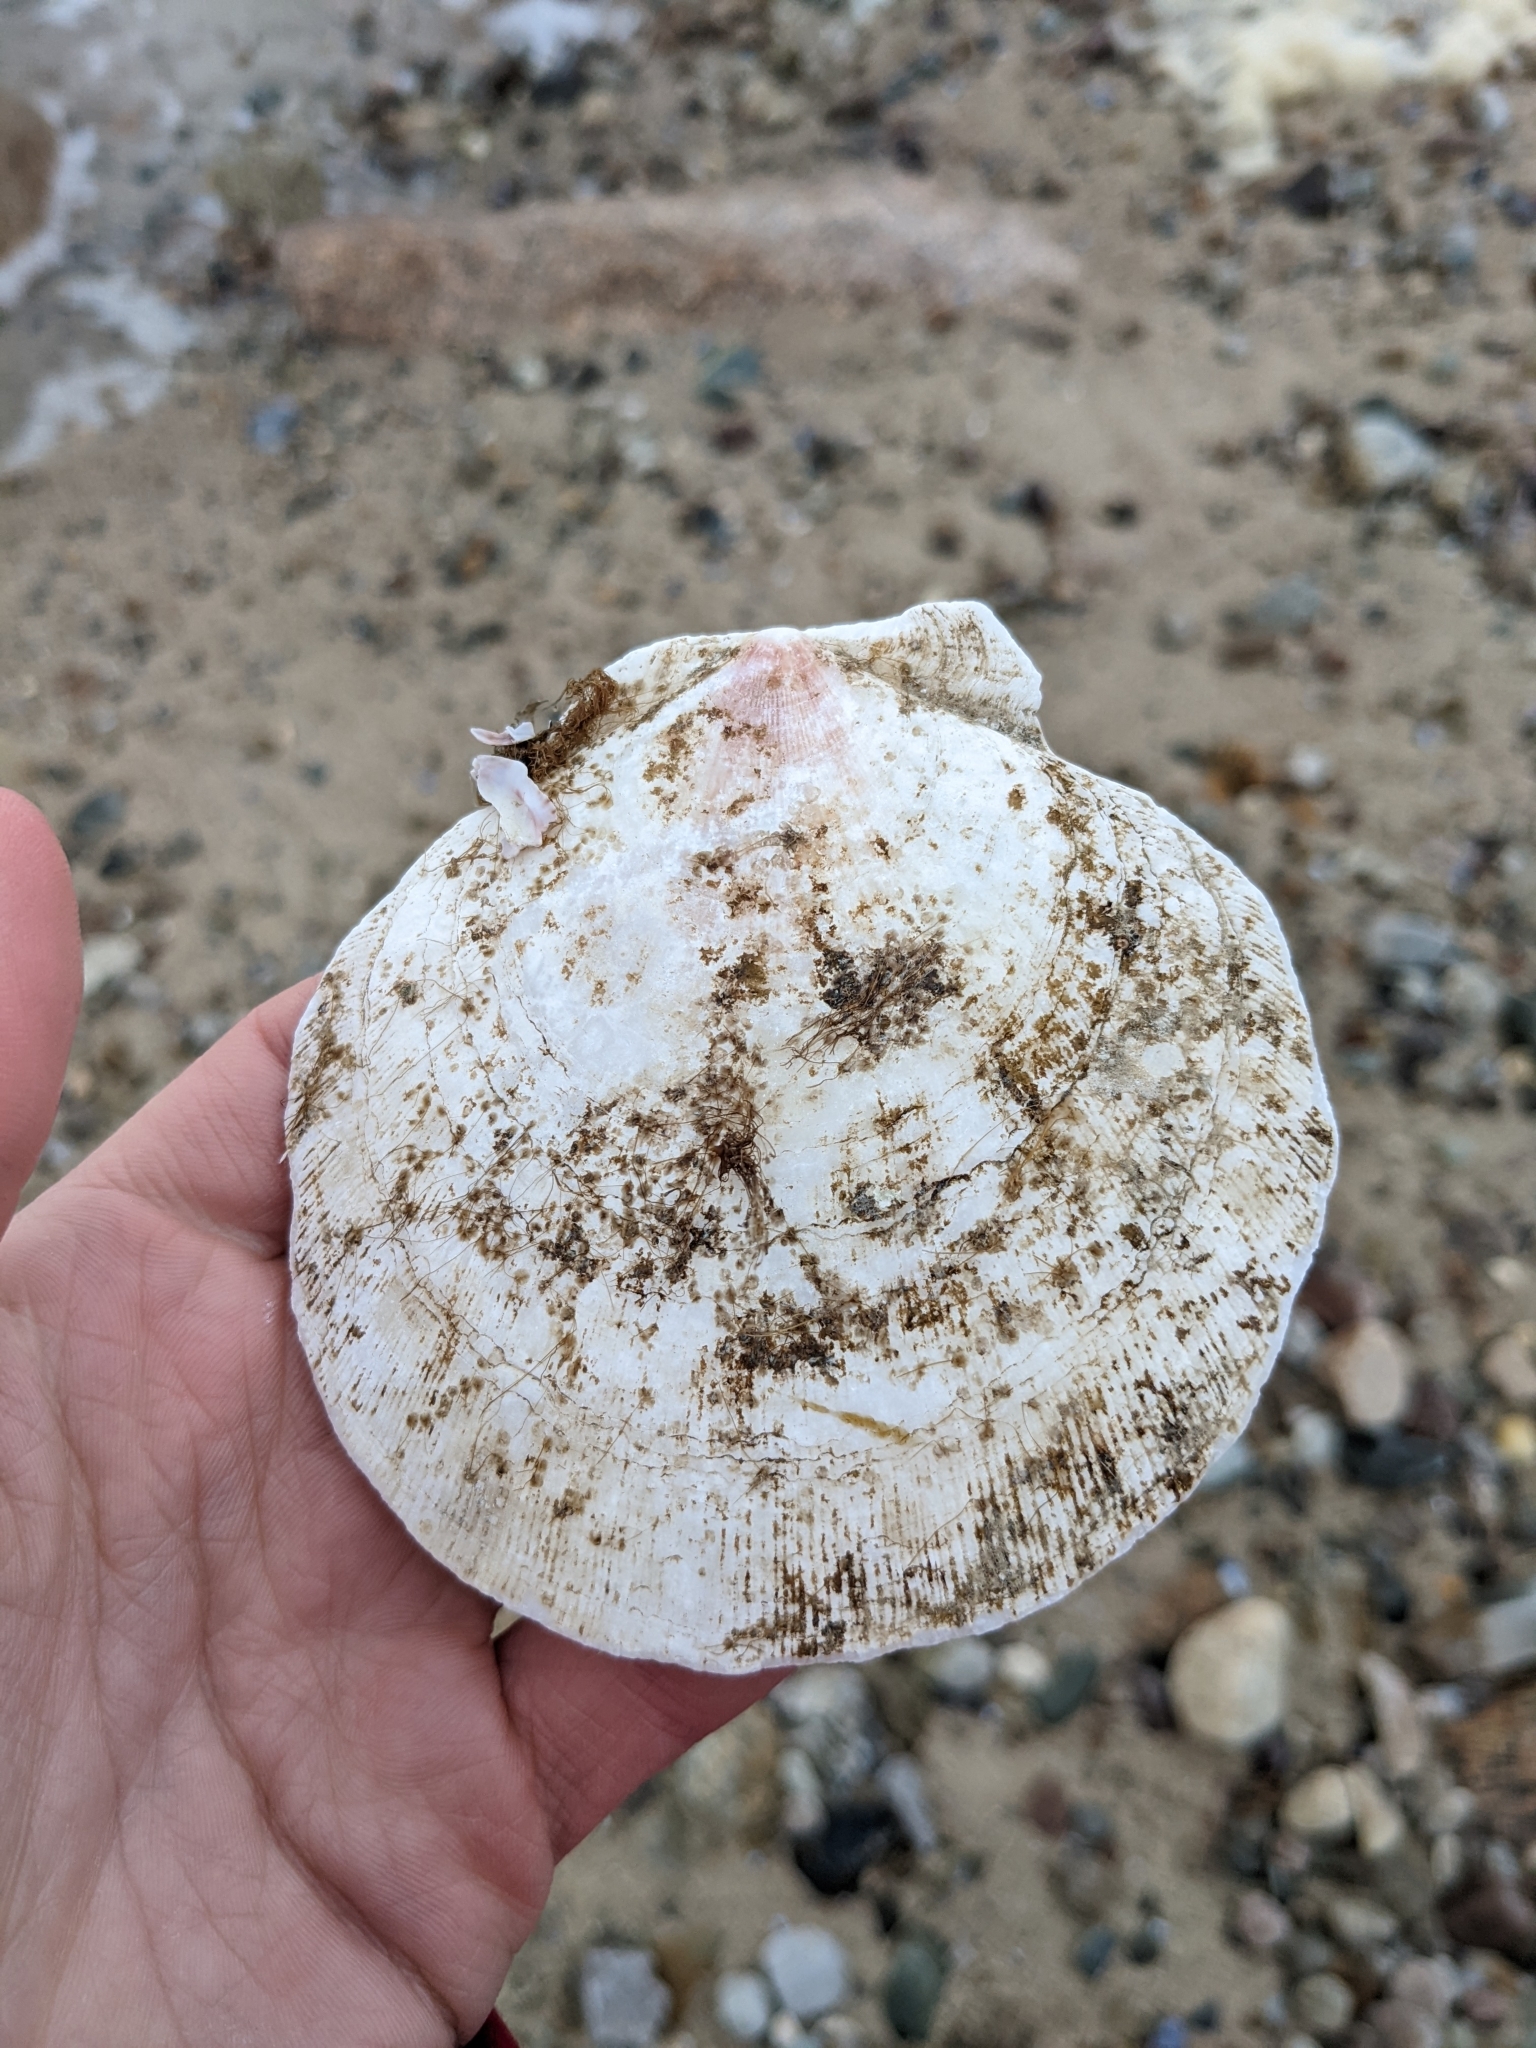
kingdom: Animalia
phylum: Mollusca
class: Bivalvia
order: Pectinida
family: Pectinidae
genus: Placopecten
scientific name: Placopecten magellanicus
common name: American sea scallop
